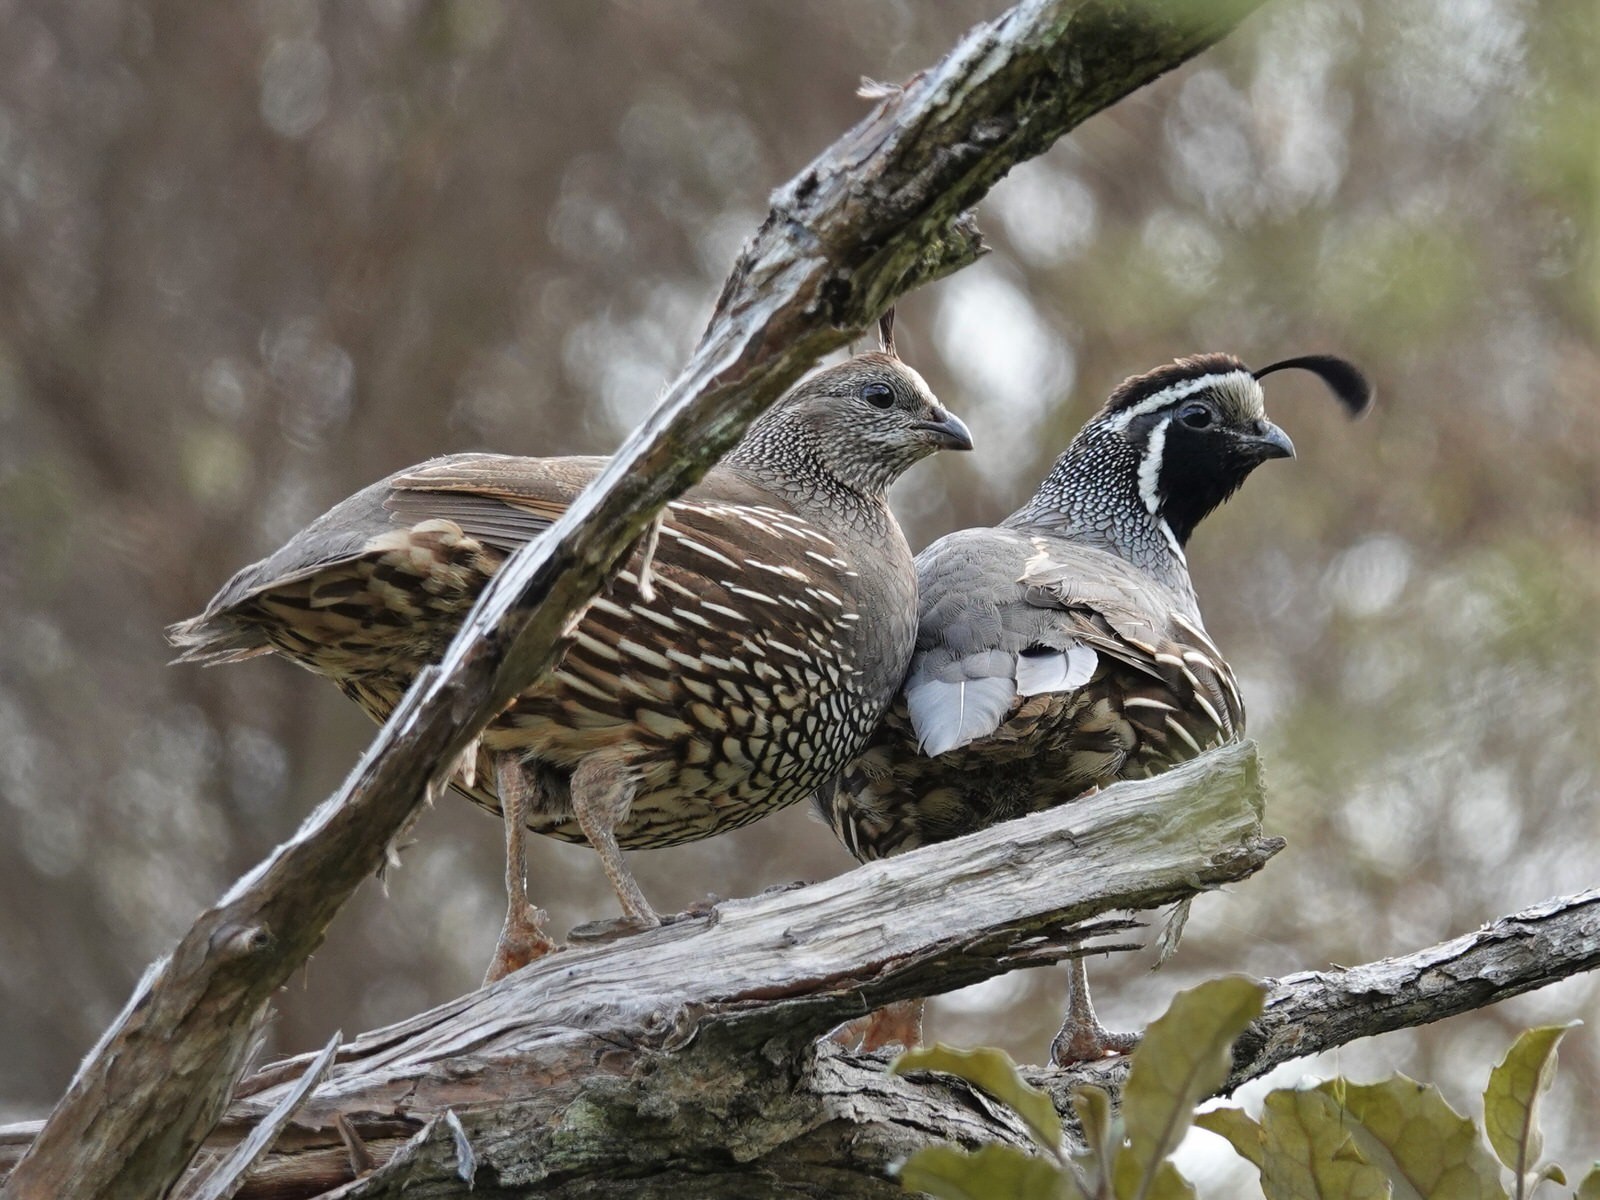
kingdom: Animalia
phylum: Chordata
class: Aves
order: Galliformes
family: Odontophoridae
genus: Callipepla
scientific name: Callipepla californica
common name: California quail
